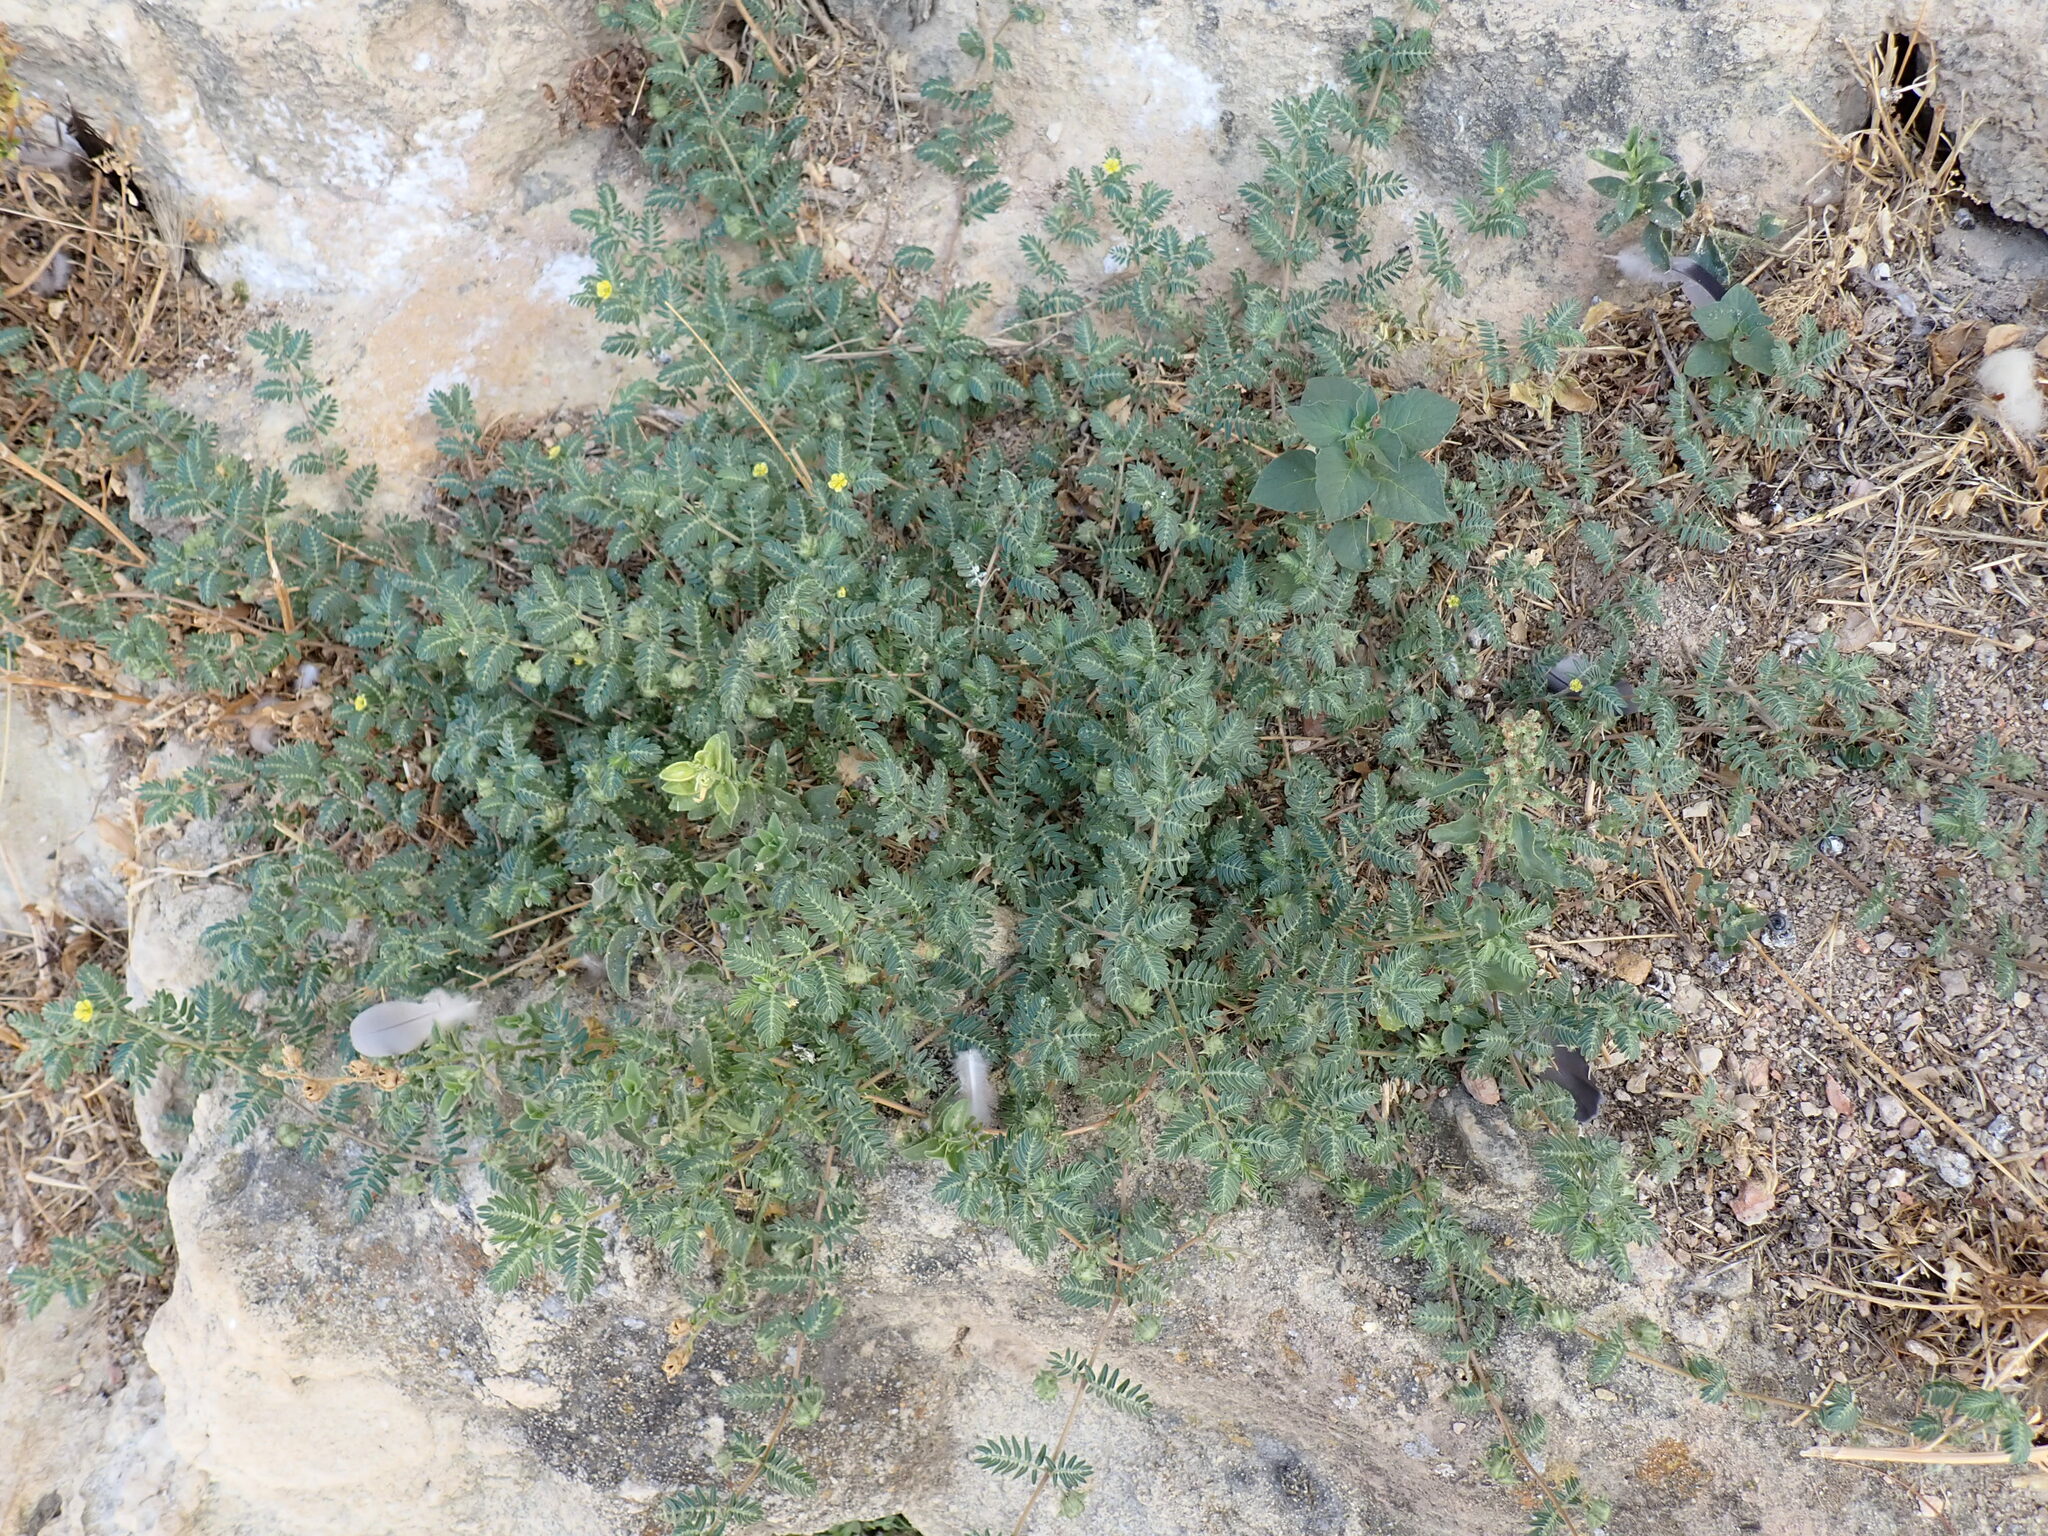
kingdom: Plantae
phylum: Tracheophyta
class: Magnoliopsida
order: Zygophyllales
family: Zygophyllaceae
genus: Tribulus
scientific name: Tribulus terrestris
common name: Puncturevine
